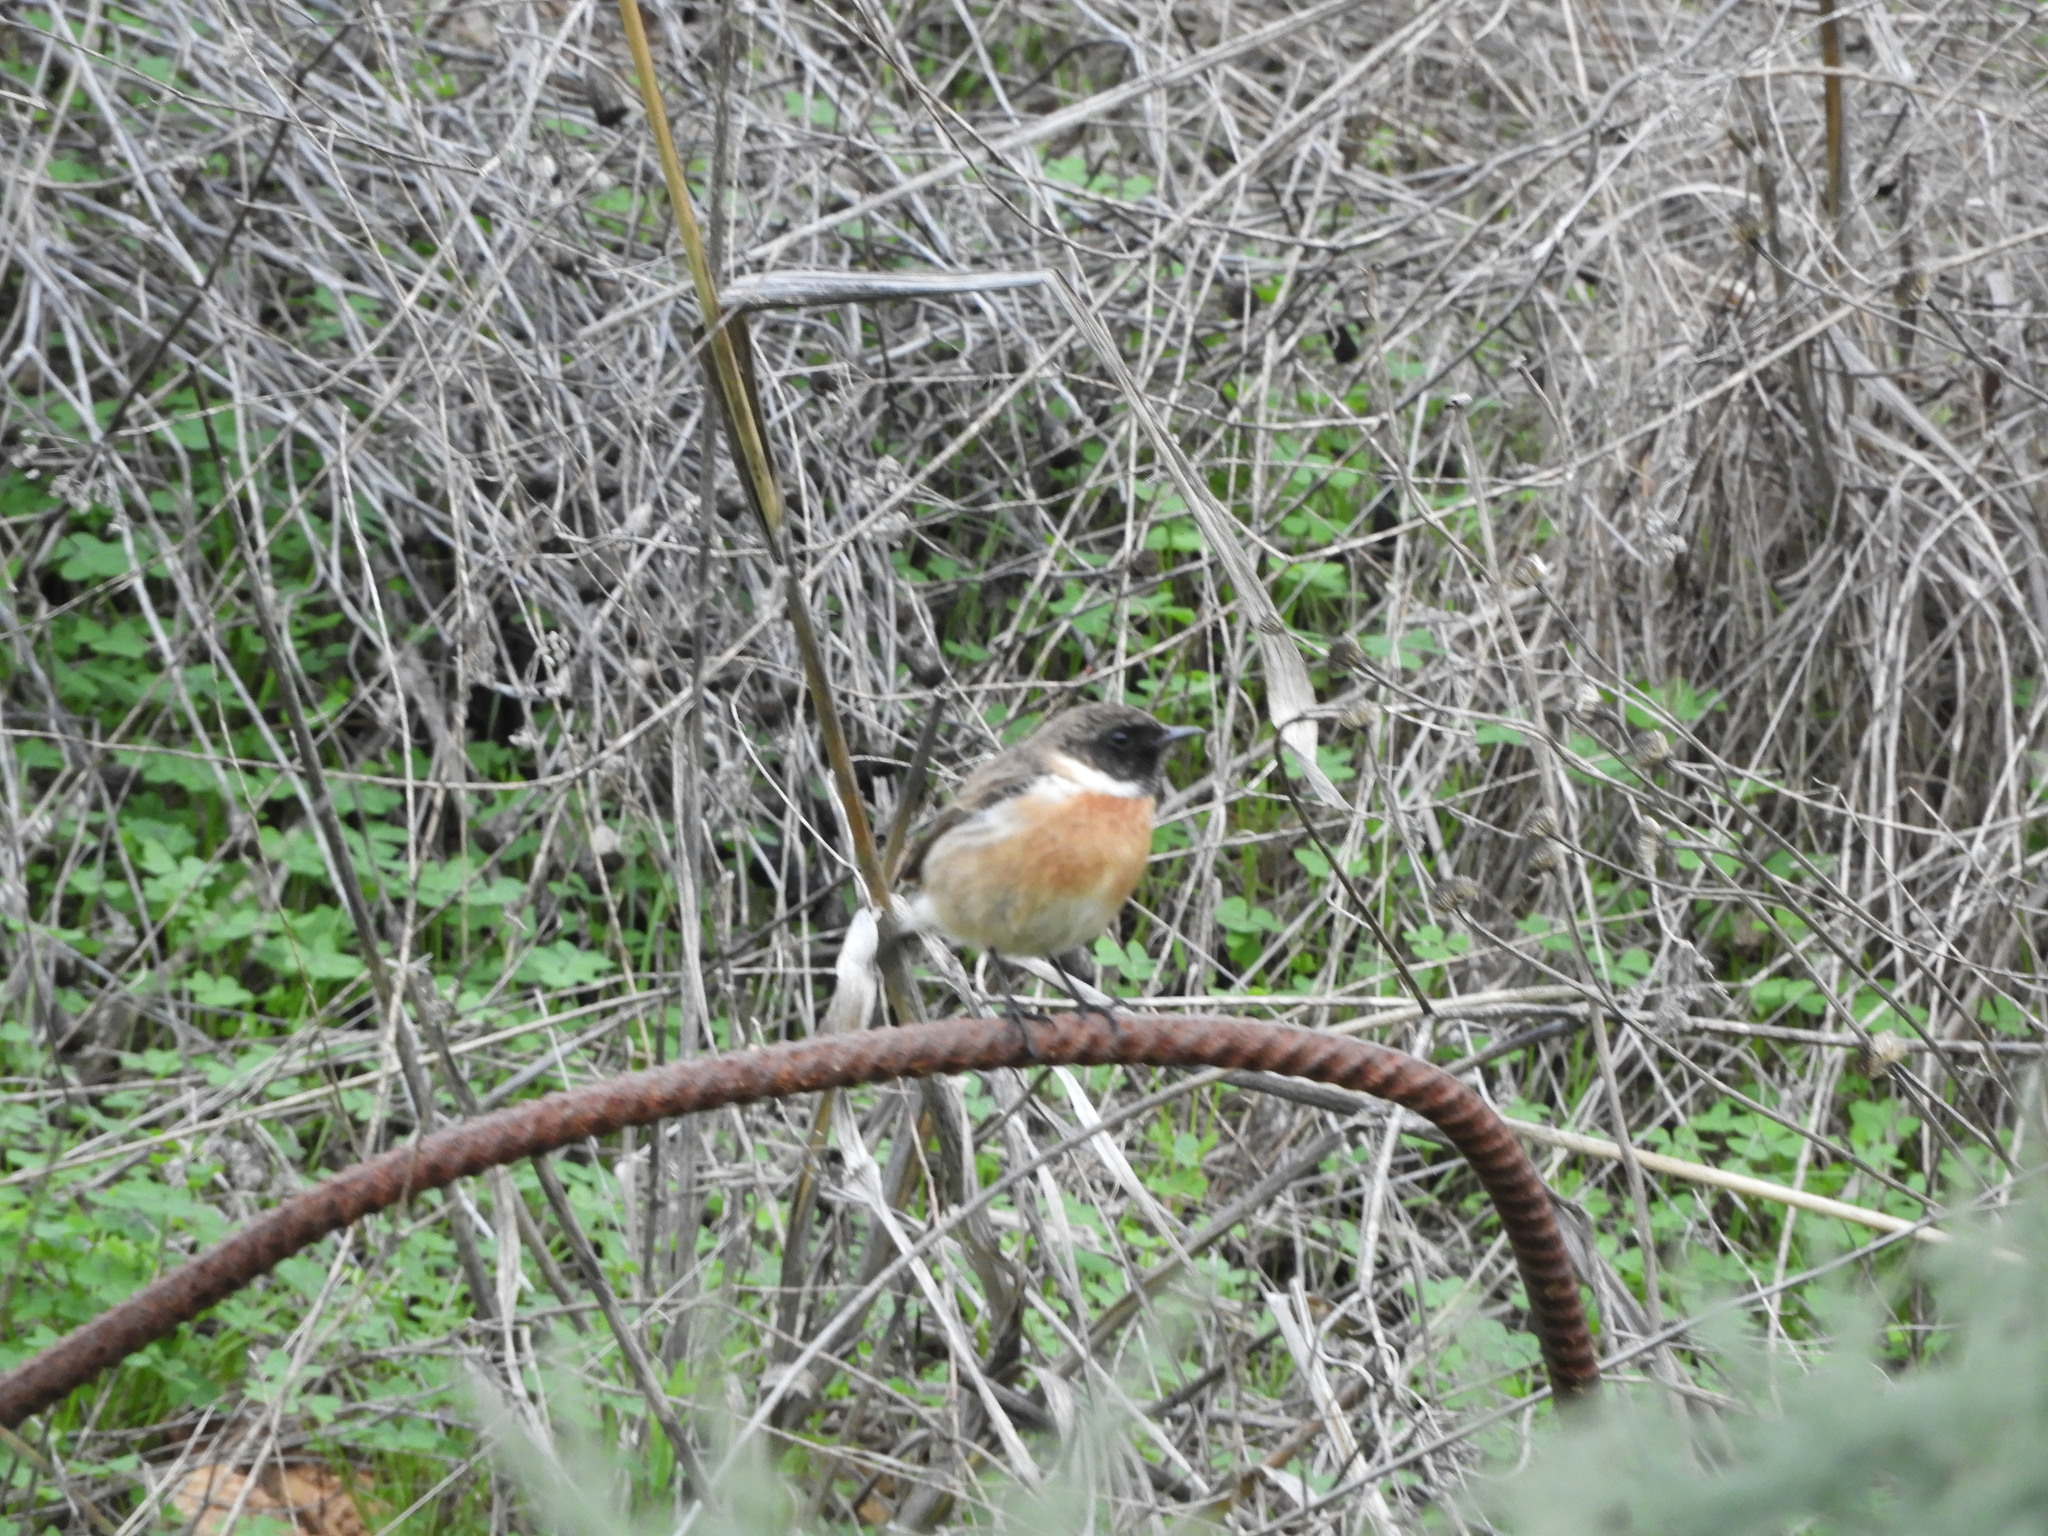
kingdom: Animalia
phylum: Chordata
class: Aves
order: Passeriformes
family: Muscicapidae
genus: Saxicola
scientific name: Saxicola rubicola
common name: European stonechat
